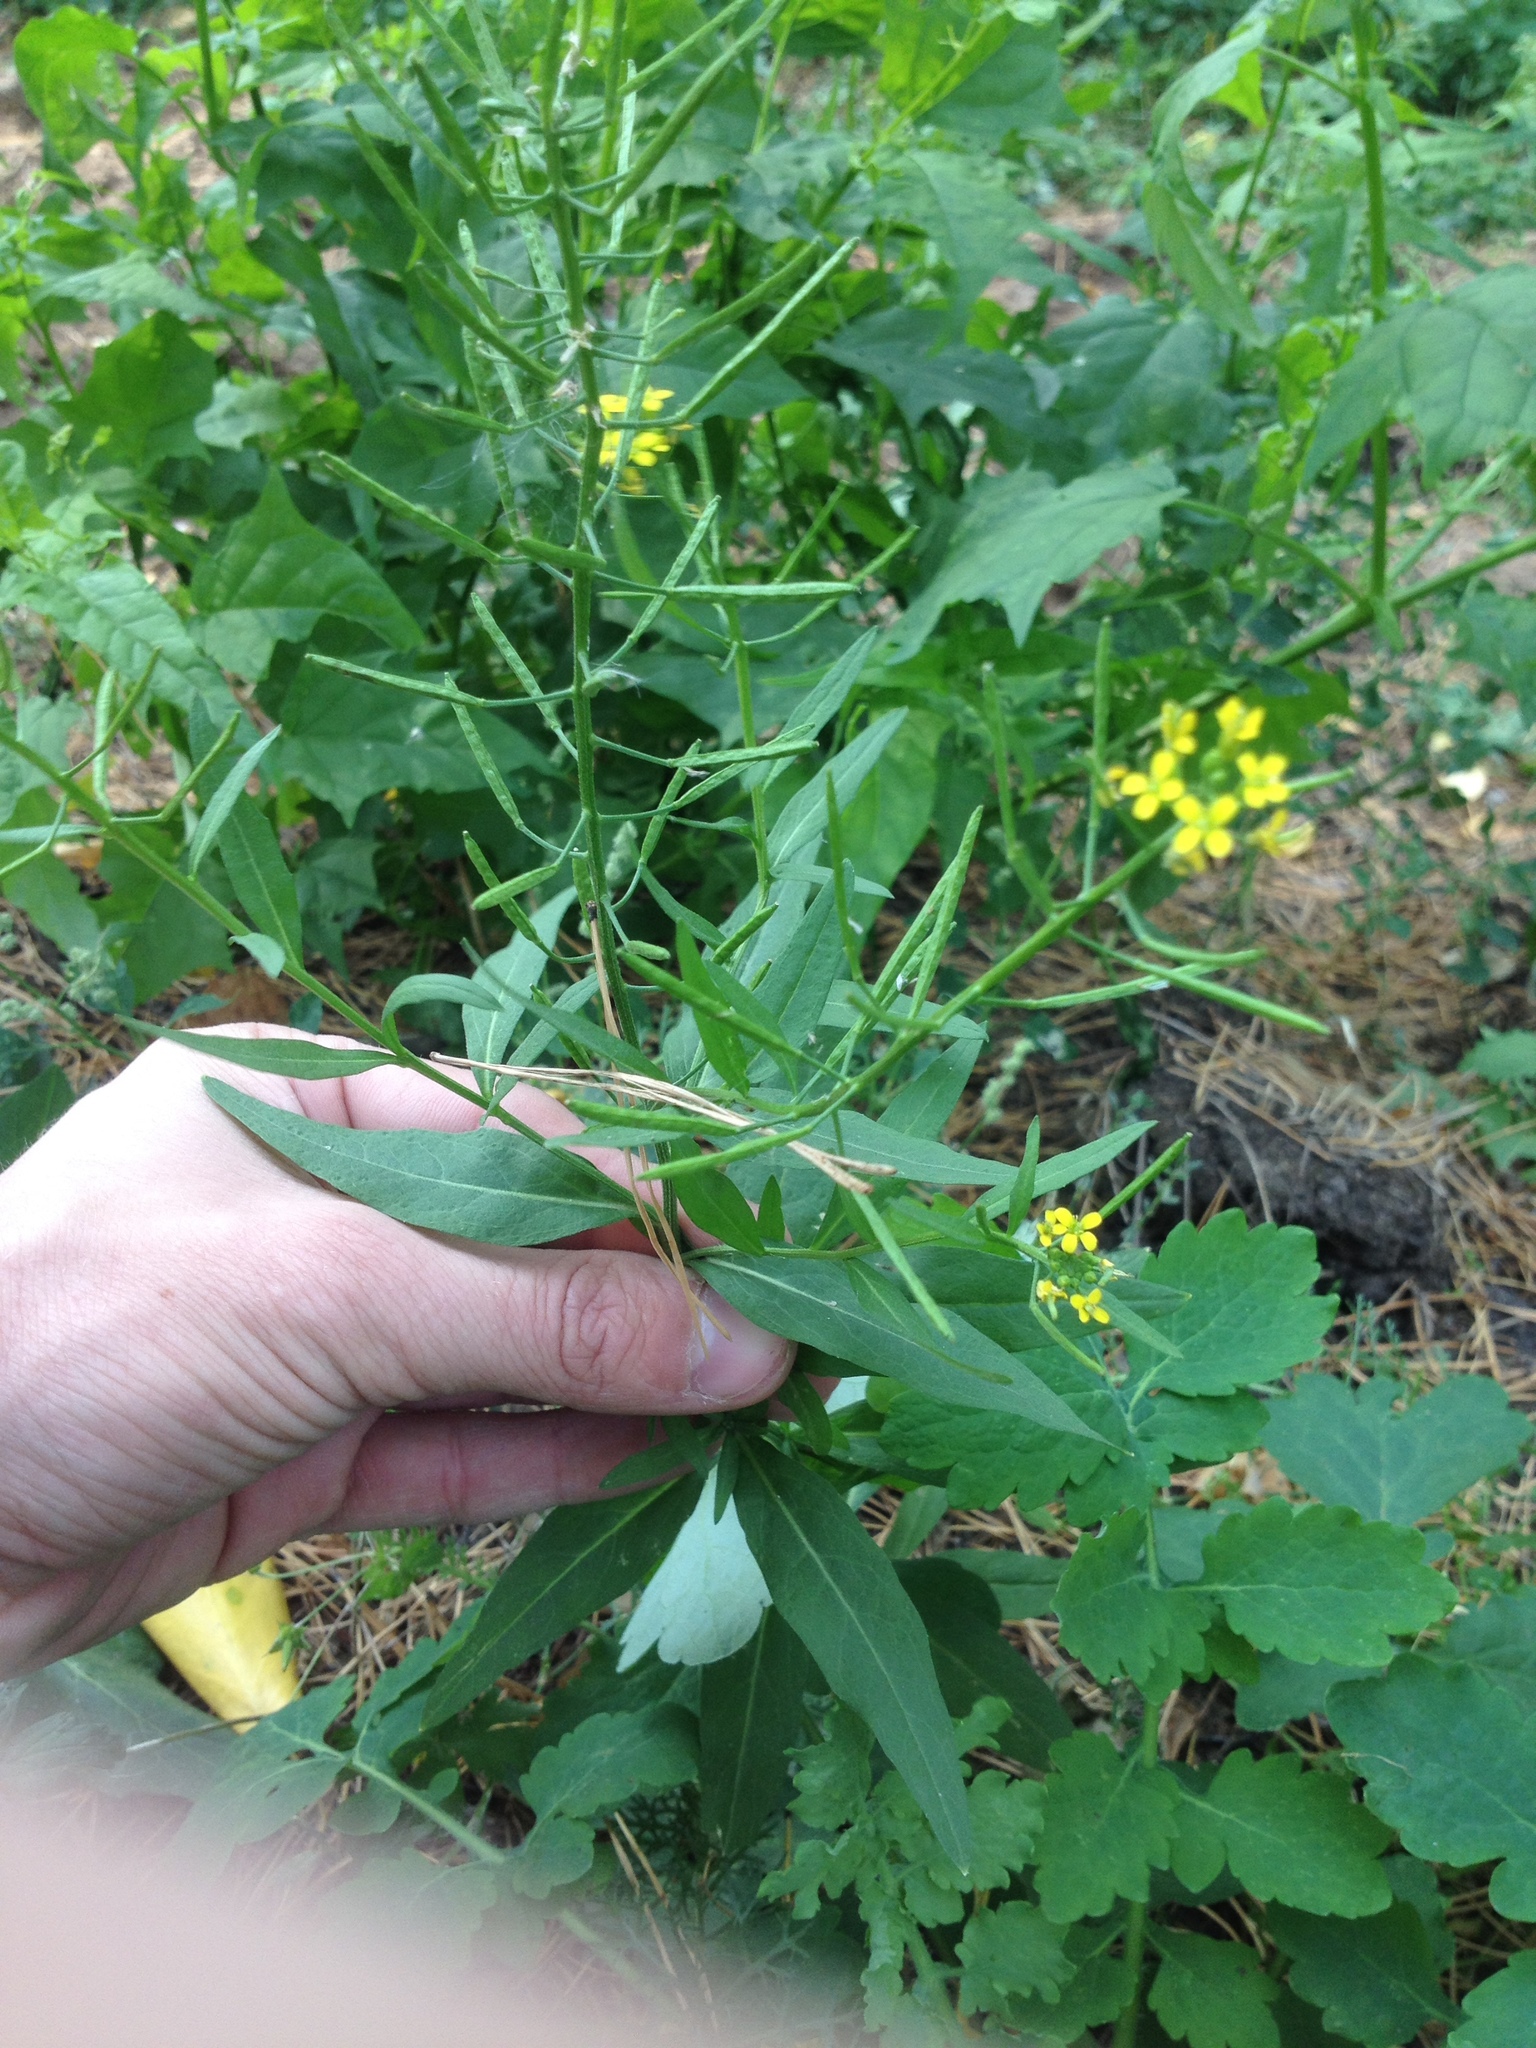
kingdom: Plantae
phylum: Tracheophyta
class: Magnoliopsida
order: Brassicales
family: Brassicaceae
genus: Erysimum
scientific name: Erysimum cheiranthoides
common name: Treacle mustard
